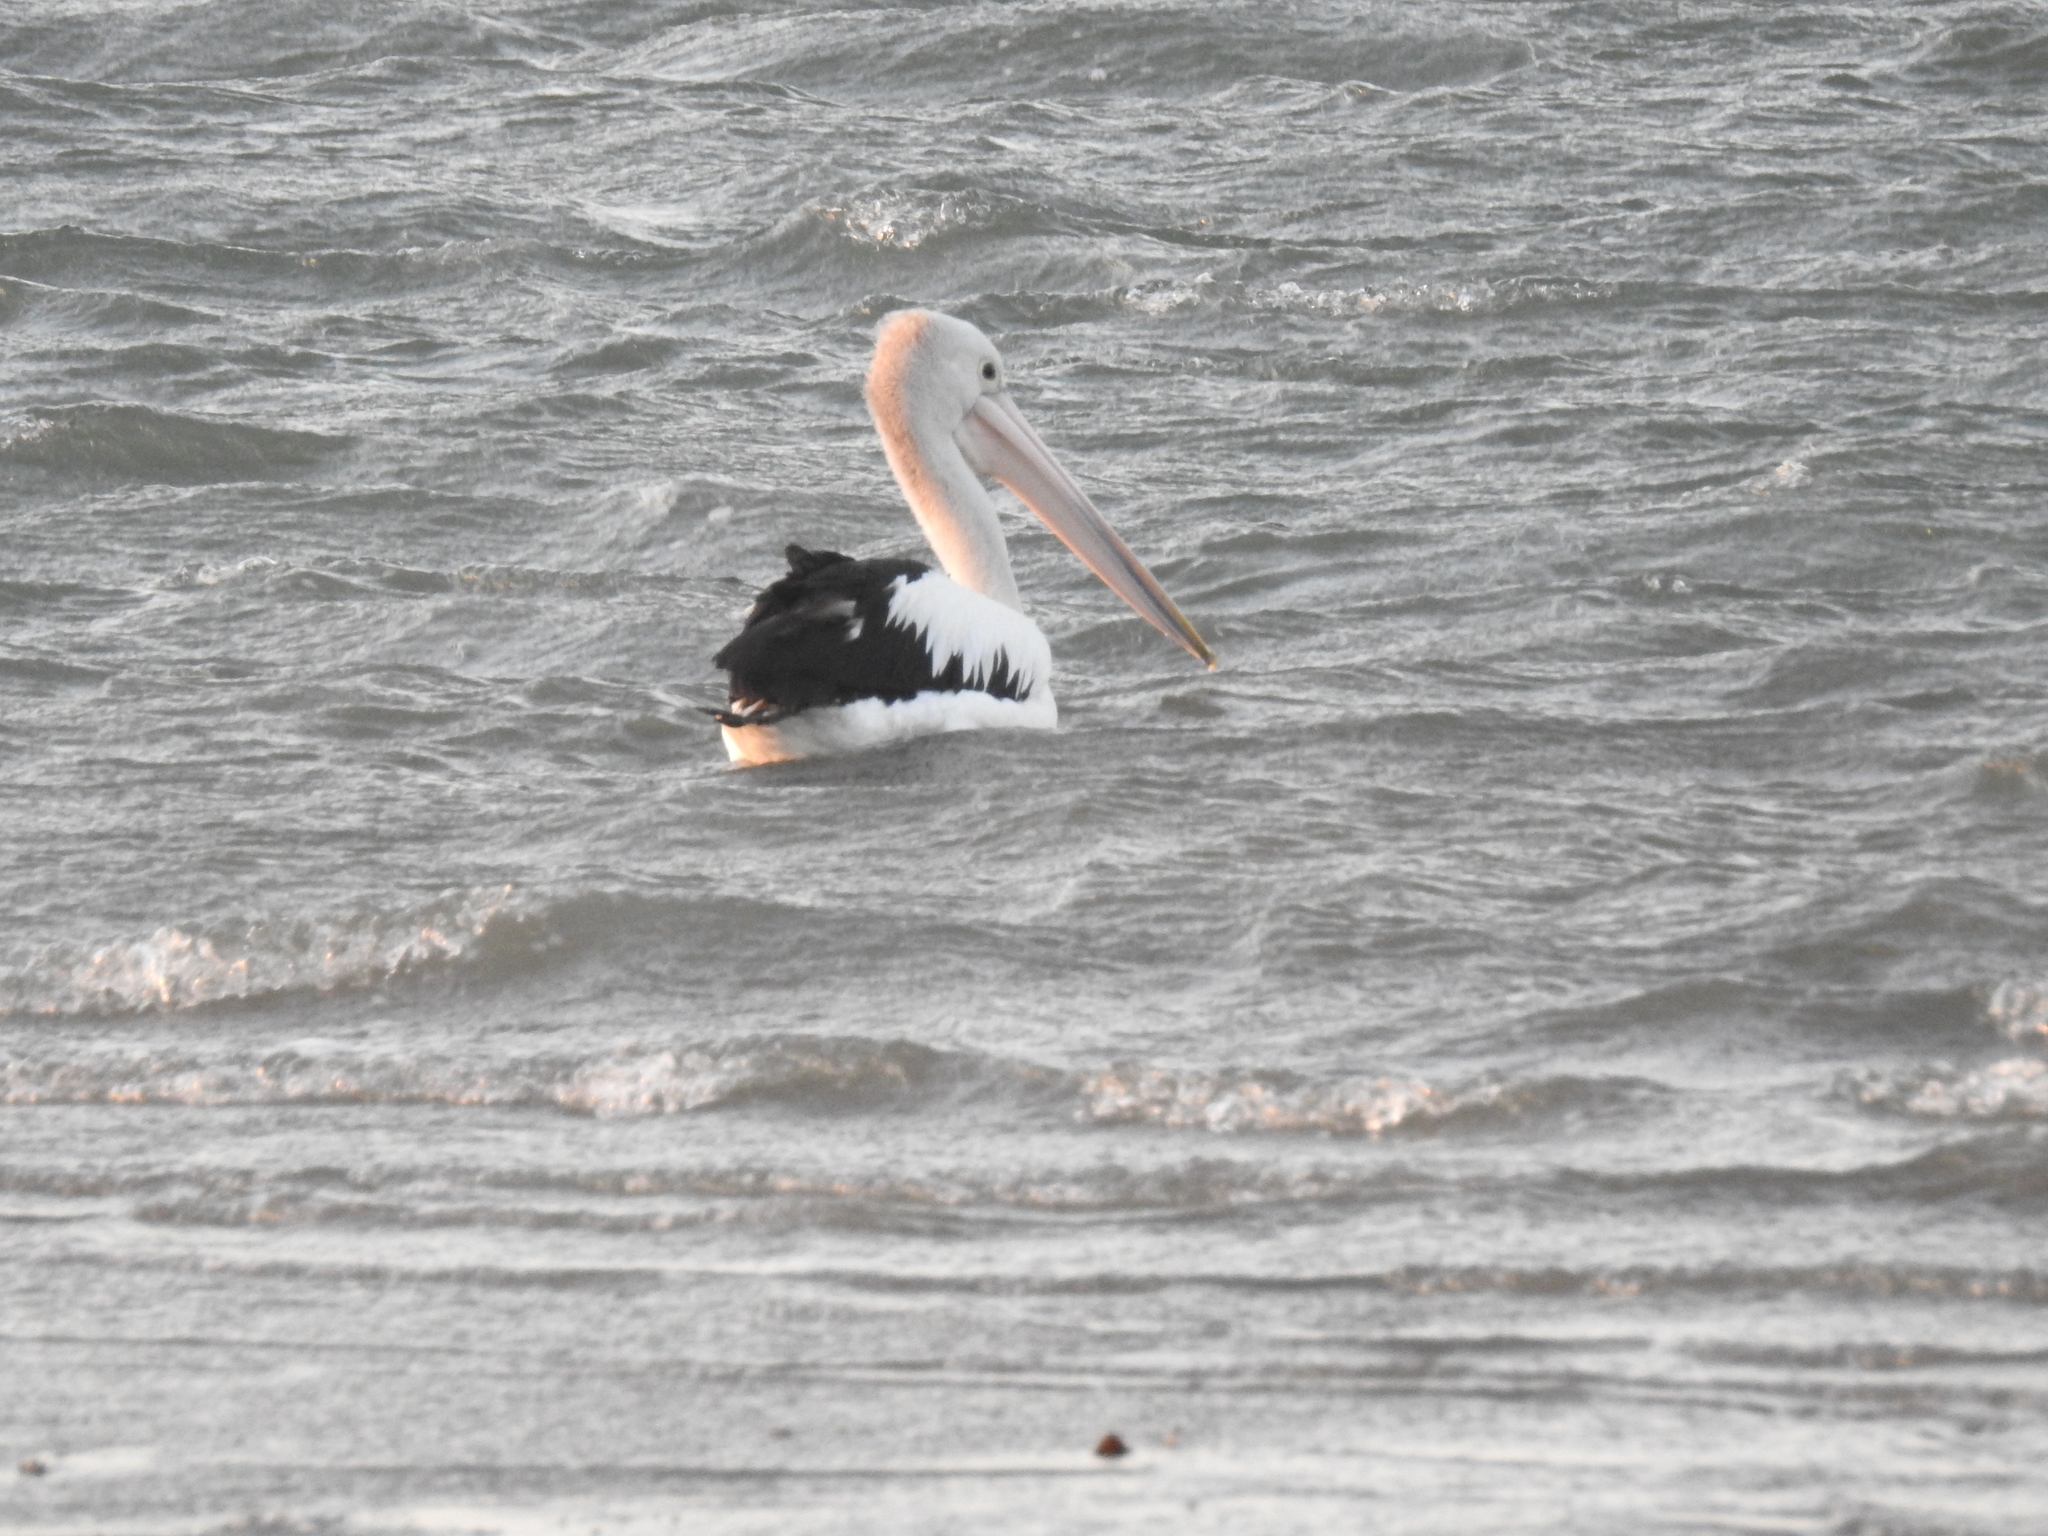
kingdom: Animalia
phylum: Chordata
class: Aves
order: Pelecaniformes
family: Pelecanidae
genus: Pelecanus
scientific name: Pelecanus conspicillatus
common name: Australian pelican
